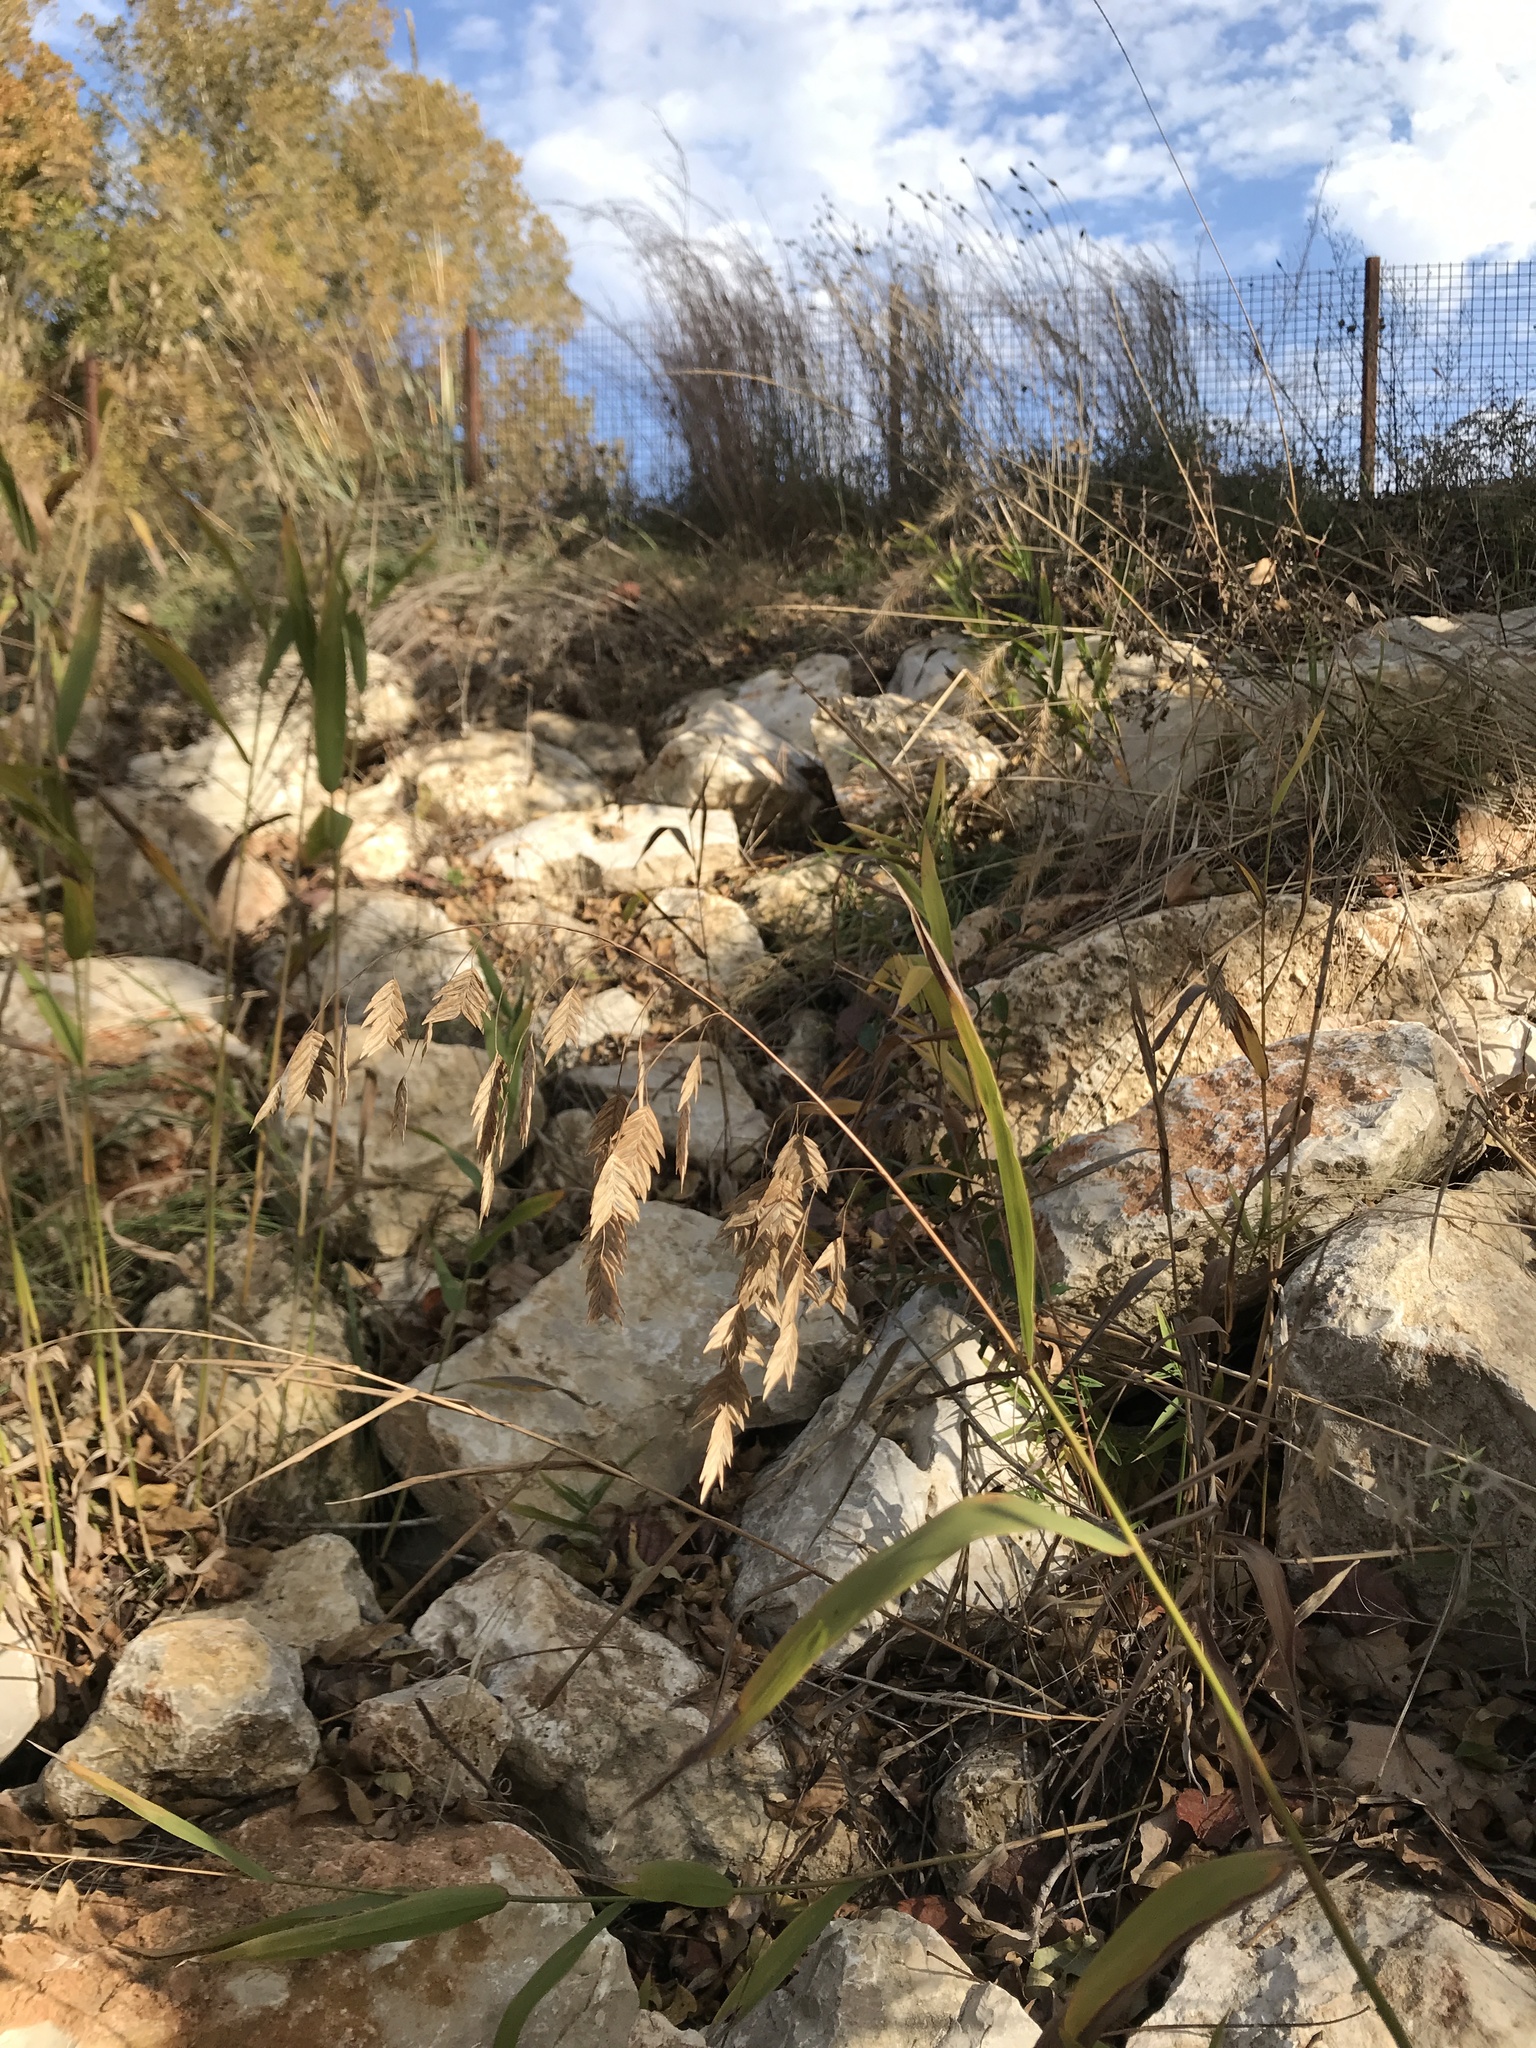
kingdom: Plantae
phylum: Tracheophyta
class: Liliopsida
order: Poales
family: Poaceae
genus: Chasmanthium
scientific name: Chasmanthium latifolium
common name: Broad-leaved chasmanthium
